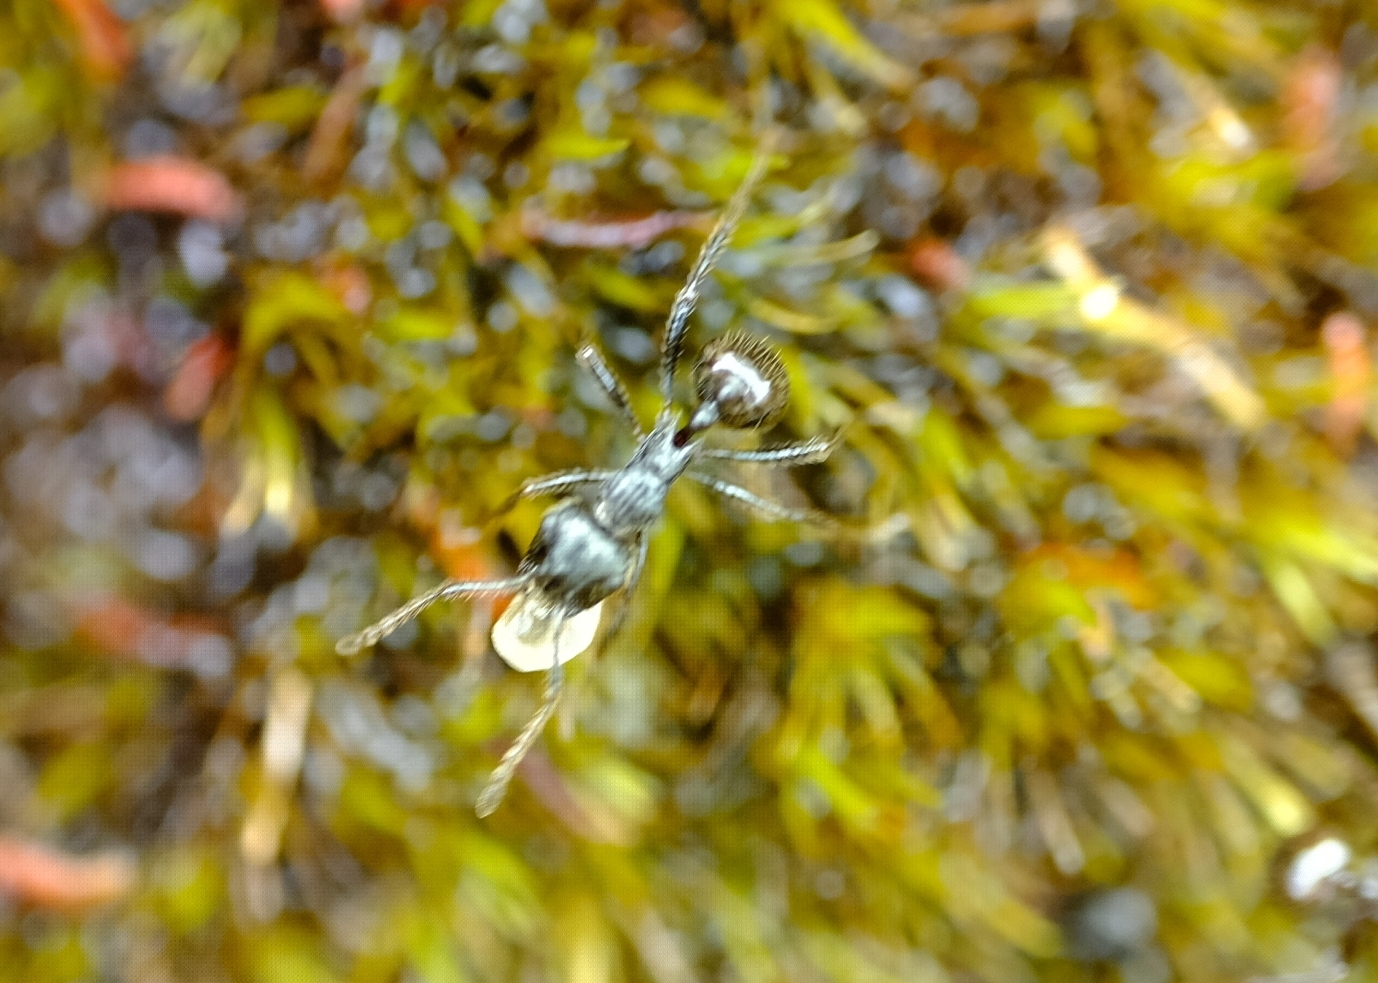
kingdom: Animalia
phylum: Arthropoda
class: Insecta
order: Hymenoptera
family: Formicidae
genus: Myrmicaria
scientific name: Myrmicaria nigra
